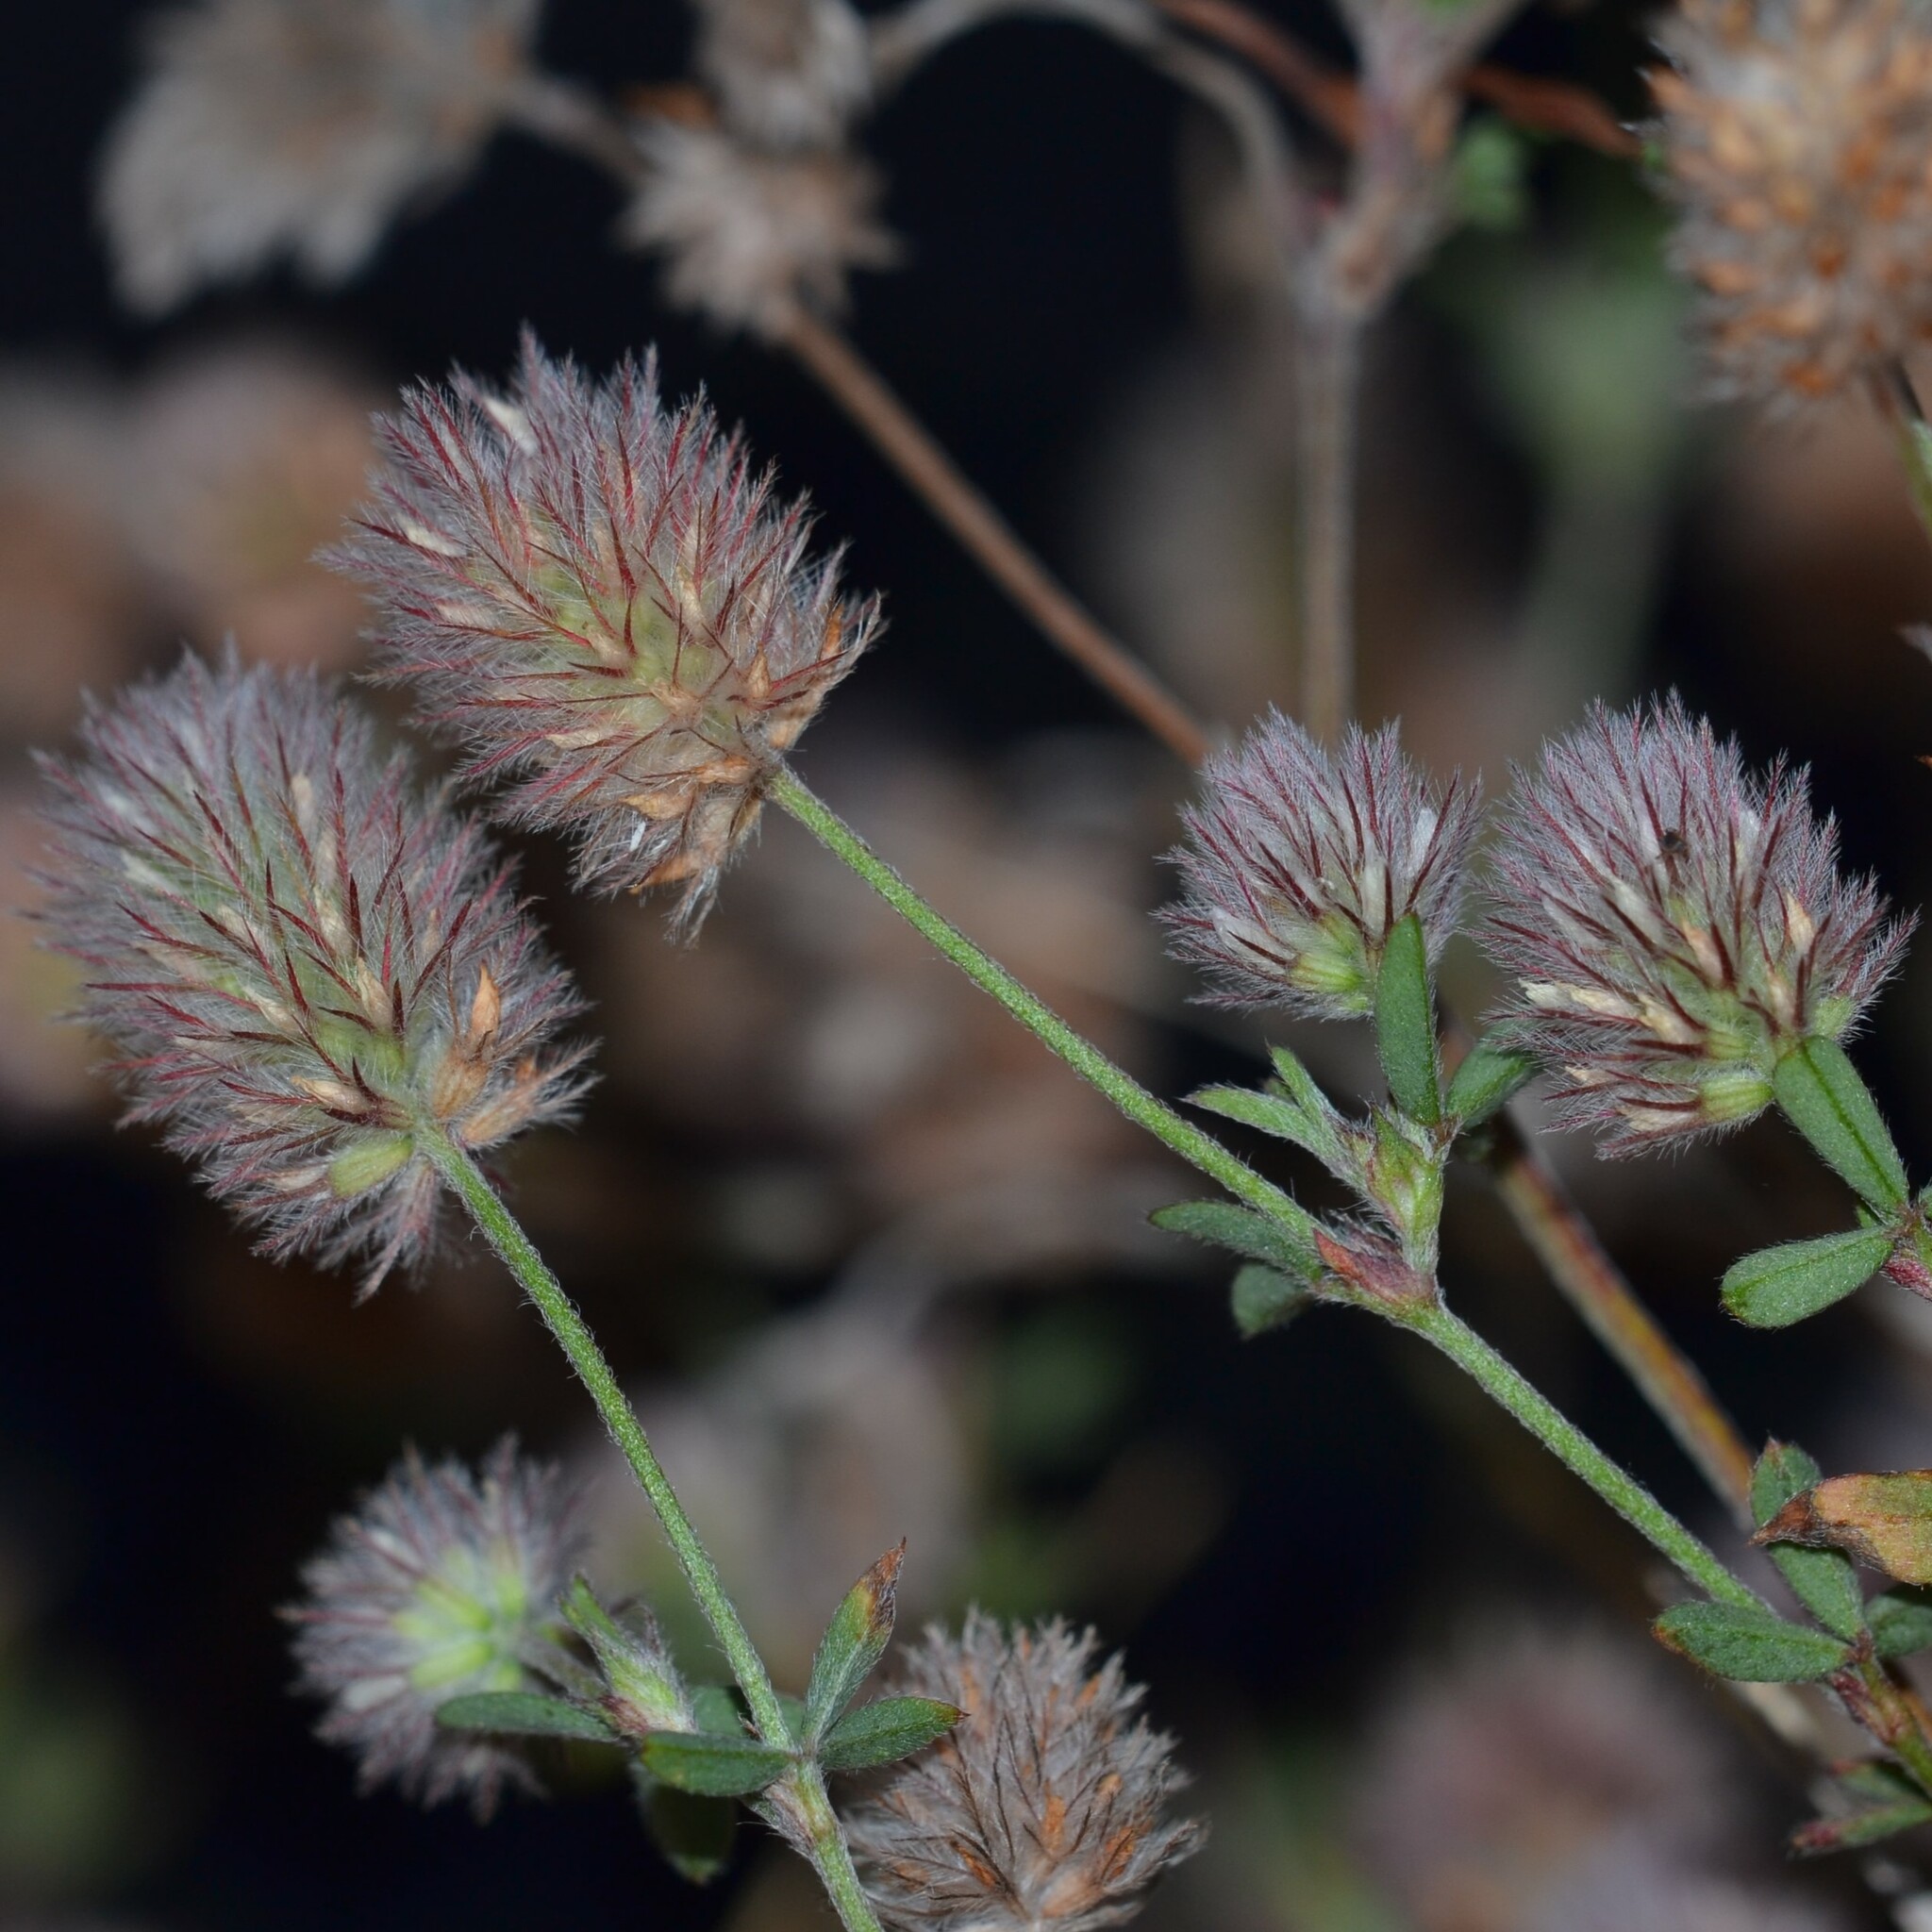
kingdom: Plantae
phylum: Tracheophyta
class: Magnoliopsida
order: Fabales
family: Fabaceae
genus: Trifolium
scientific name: Trifolium arvense
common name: Hare's-foot clover
